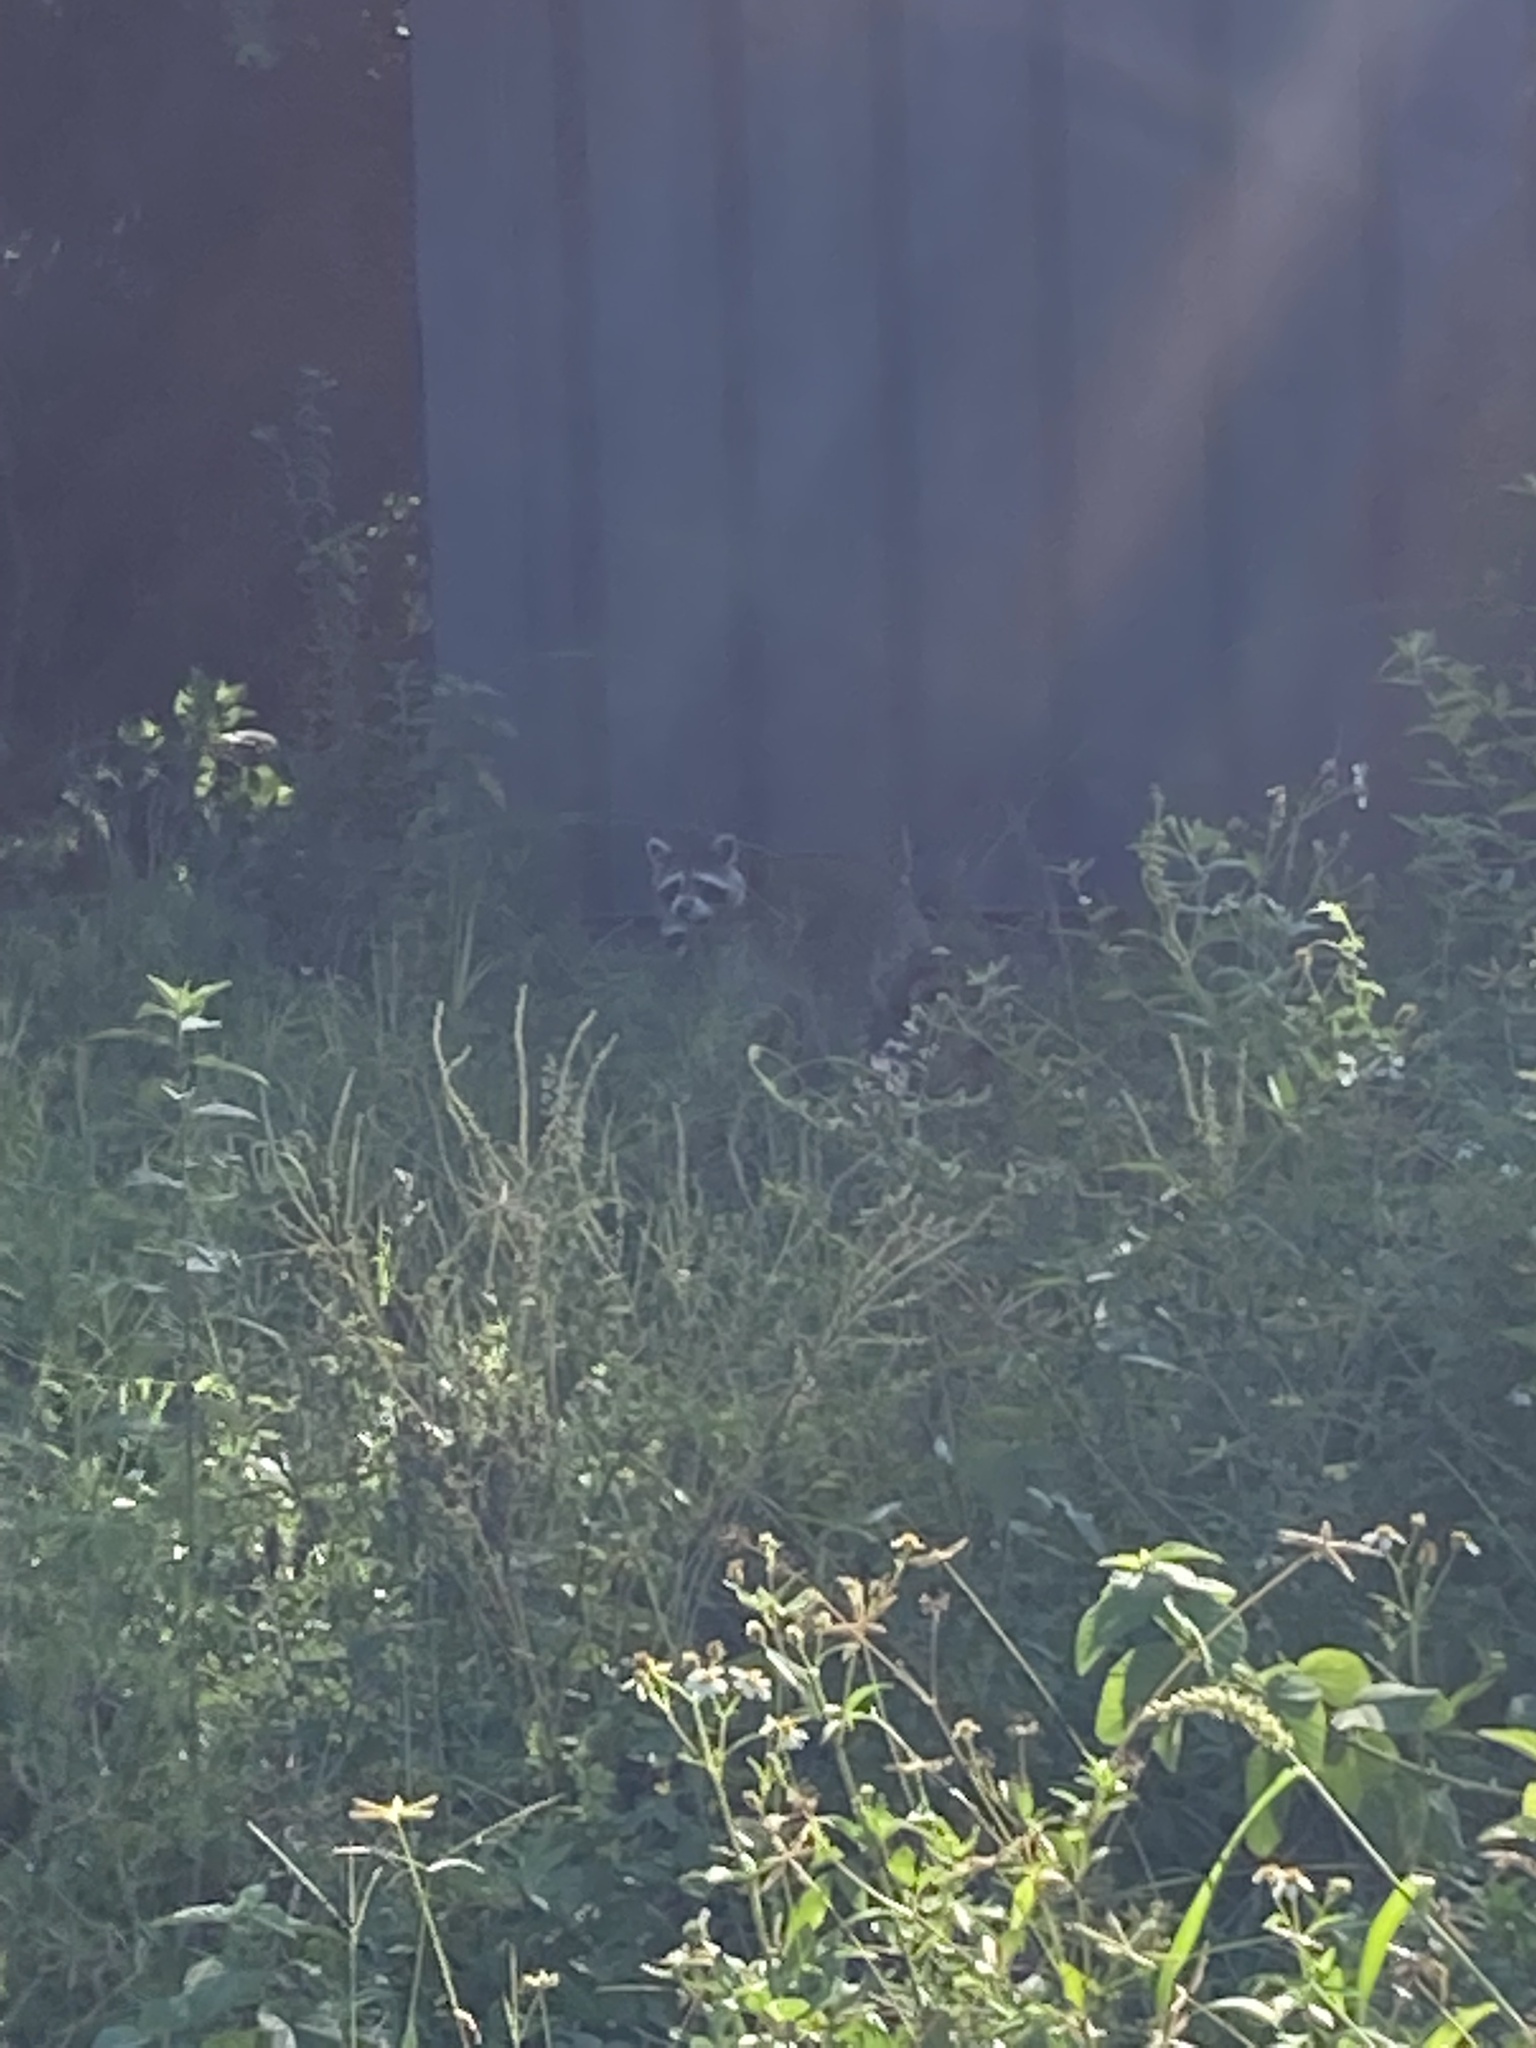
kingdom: Animalia
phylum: Chordata
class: Mammalia
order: Carnivora
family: Procyonidae
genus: Procyon
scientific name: Procyon lotor
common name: Raccoon
